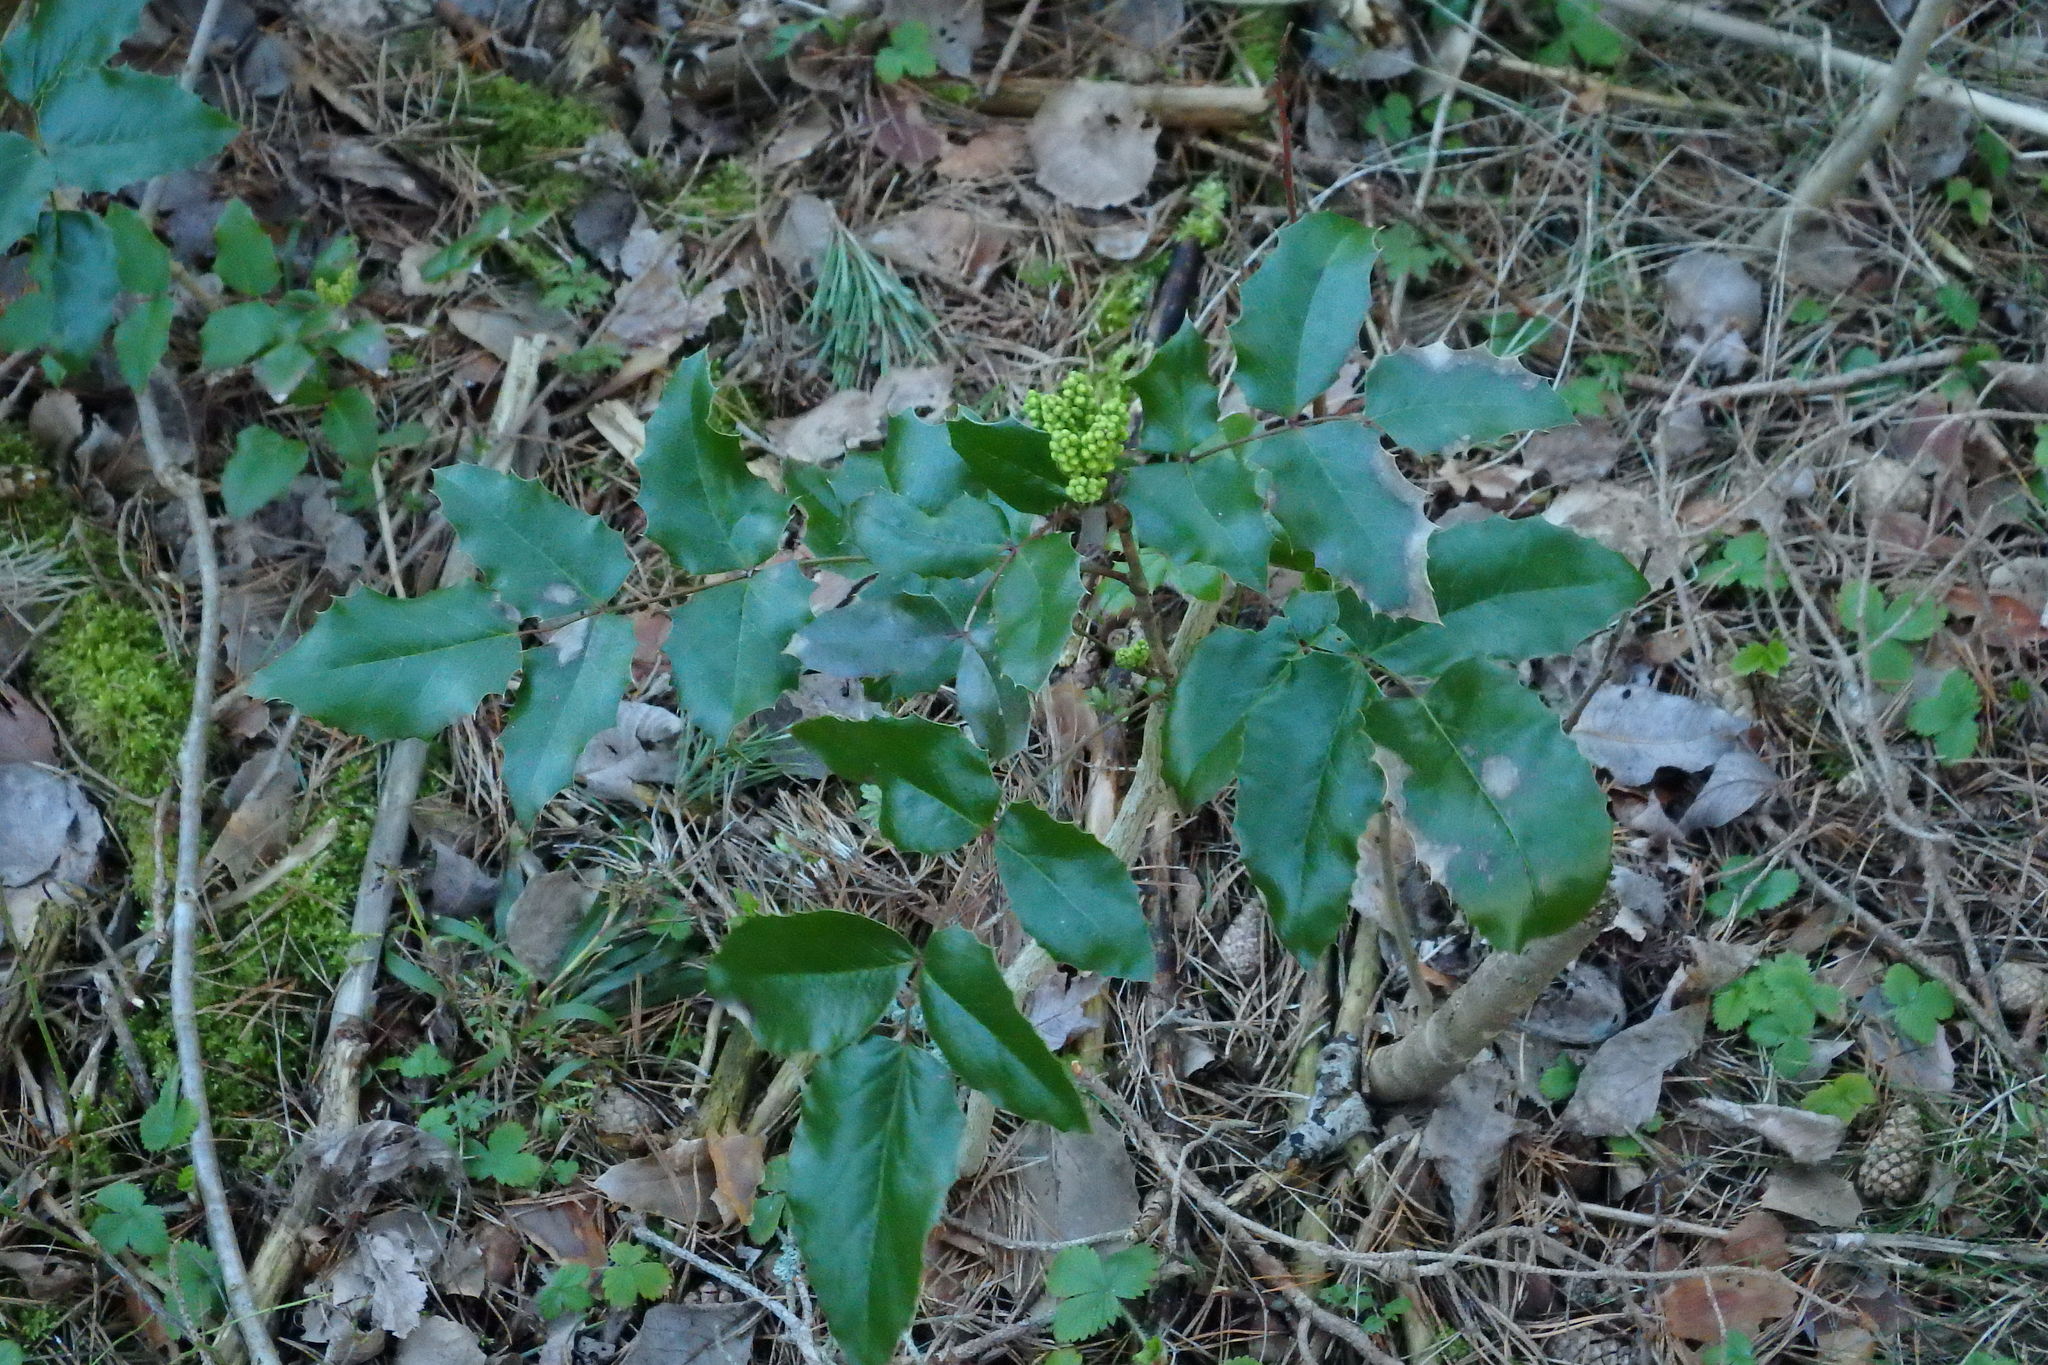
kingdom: Plantae
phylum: Tracheophyta
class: Magnoliopsida
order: Ranunculales
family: Berberidaceae
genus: Mahonia
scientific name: Mahonia aquifolium
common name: Oregon-grape
